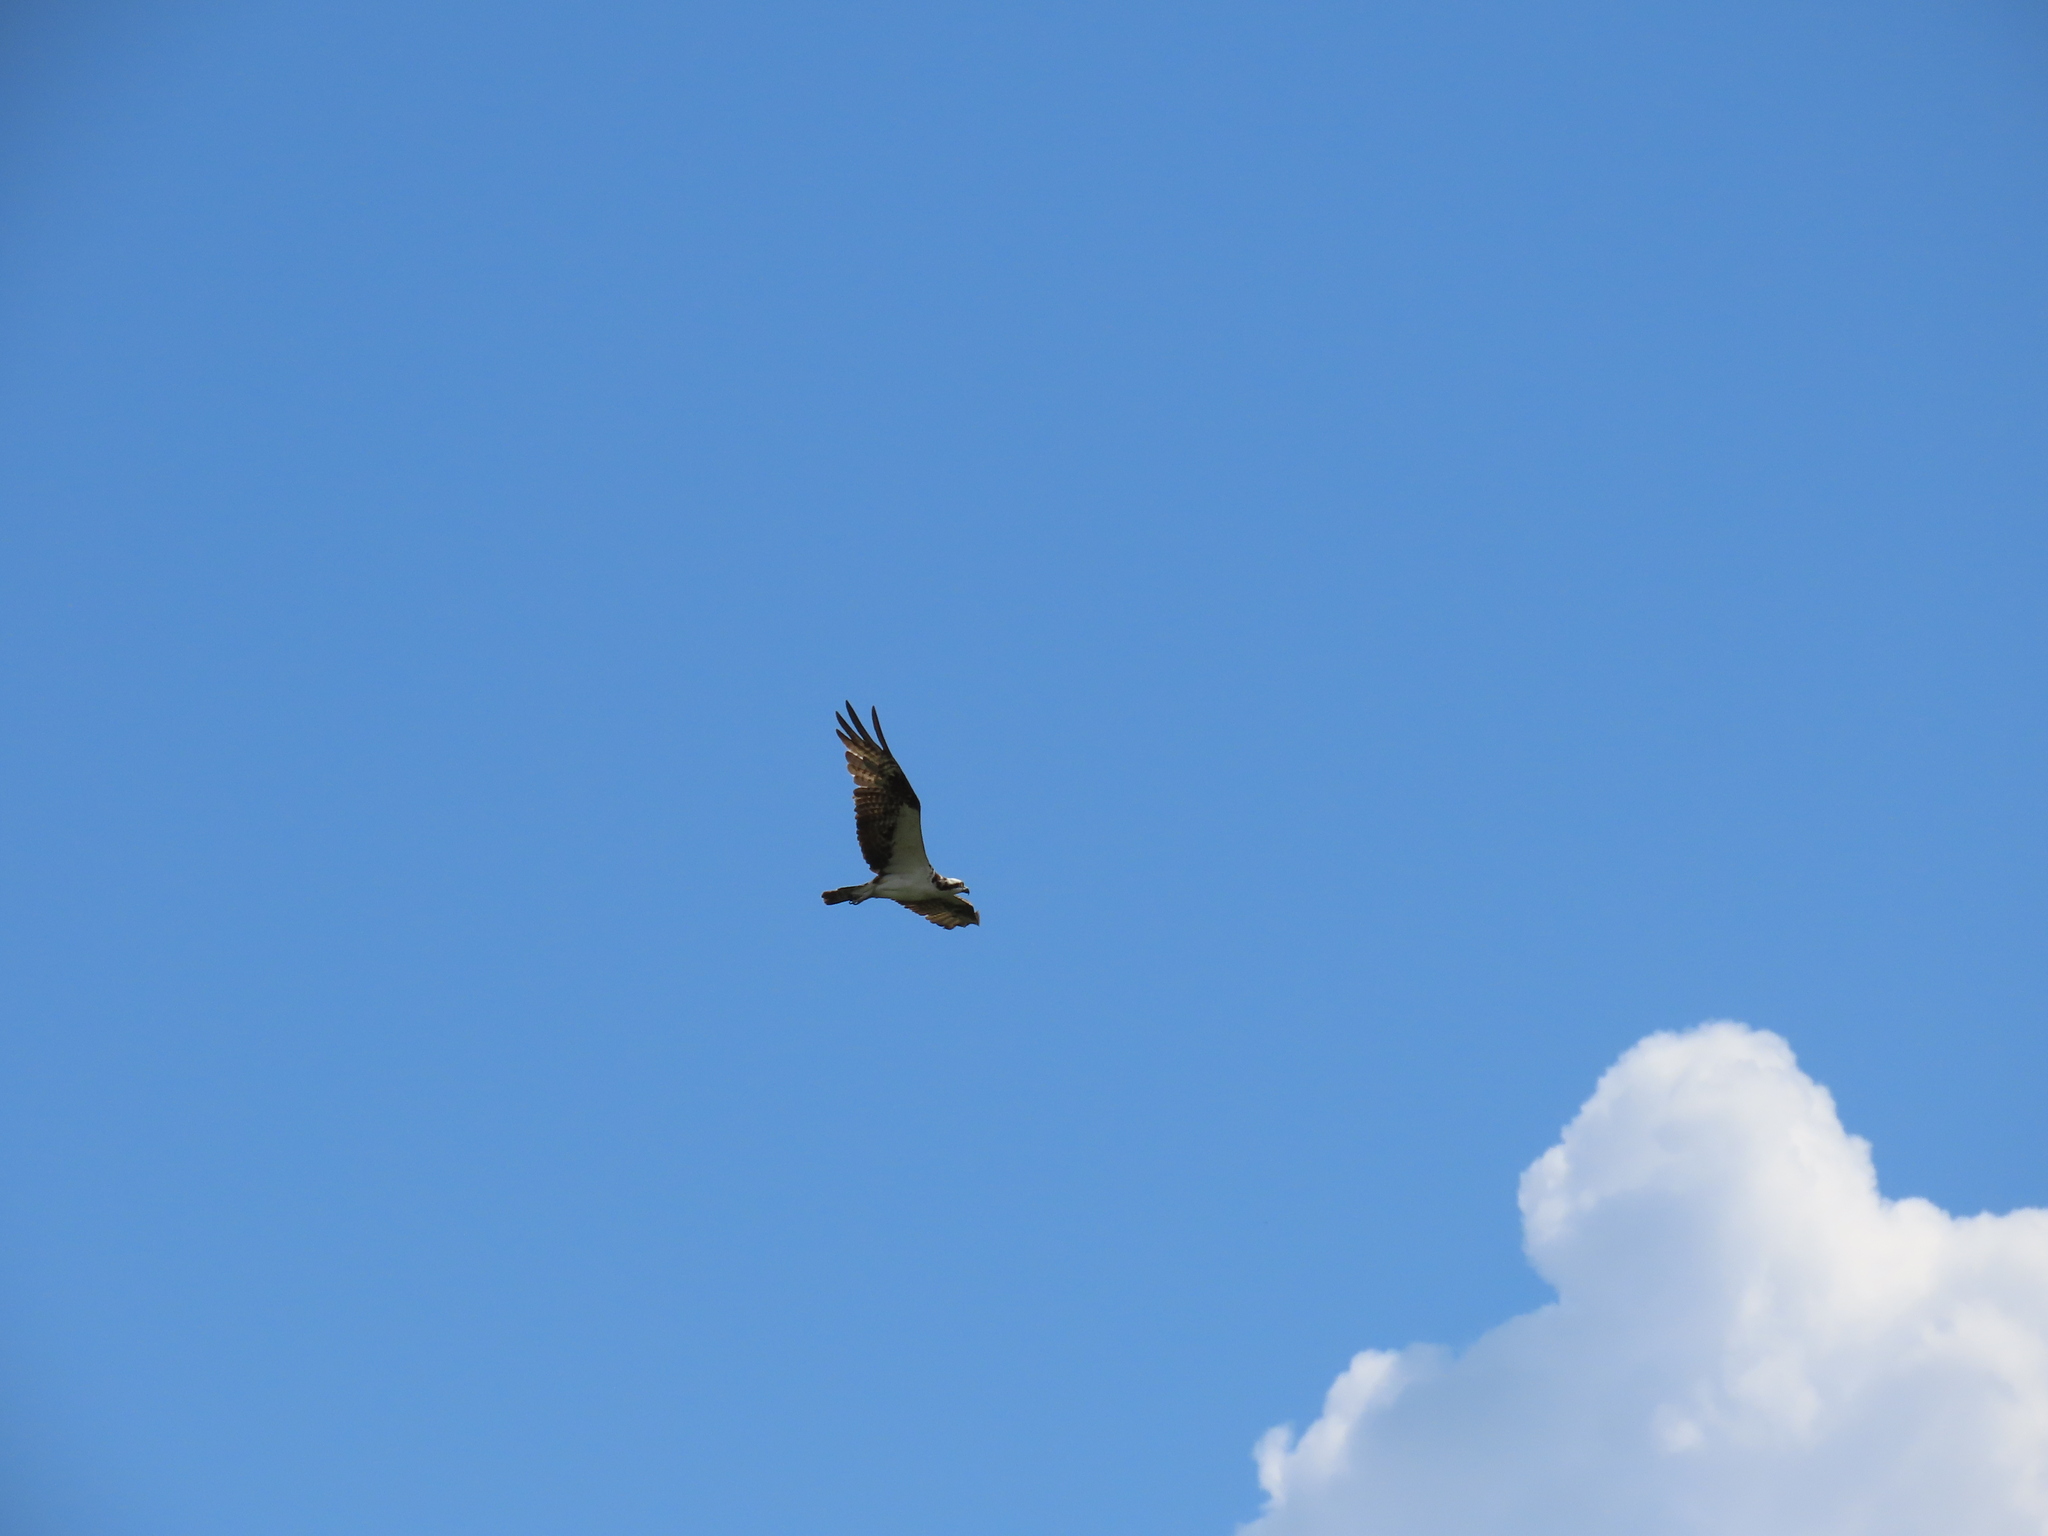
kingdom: Animalia
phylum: Chordata
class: Aves
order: Accipitriformes
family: Pandionidae
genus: Pandion
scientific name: Pandion haliaetus
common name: Osprey
